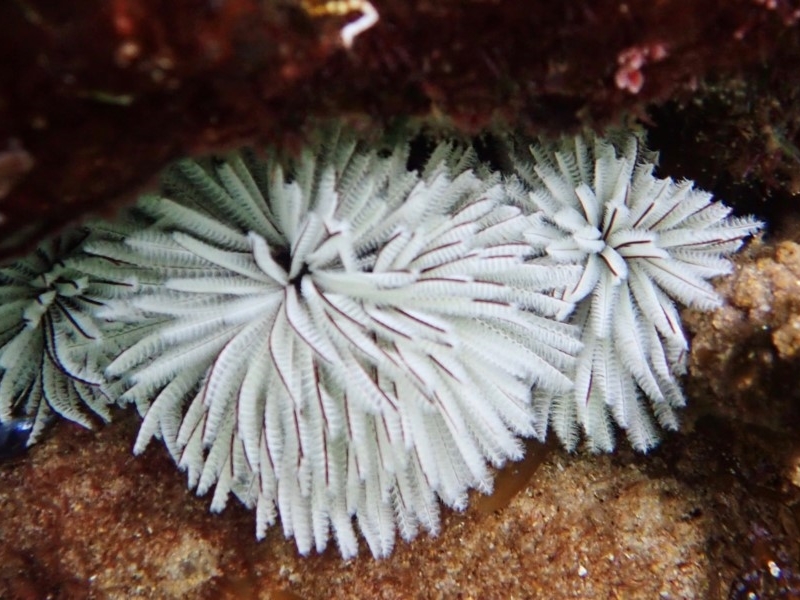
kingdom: Animalia
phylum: Annelida
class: Polychaeta
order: Sabellida
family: Sabellidae
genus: Sabellastarte
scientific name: Sabellastarte australiensis
